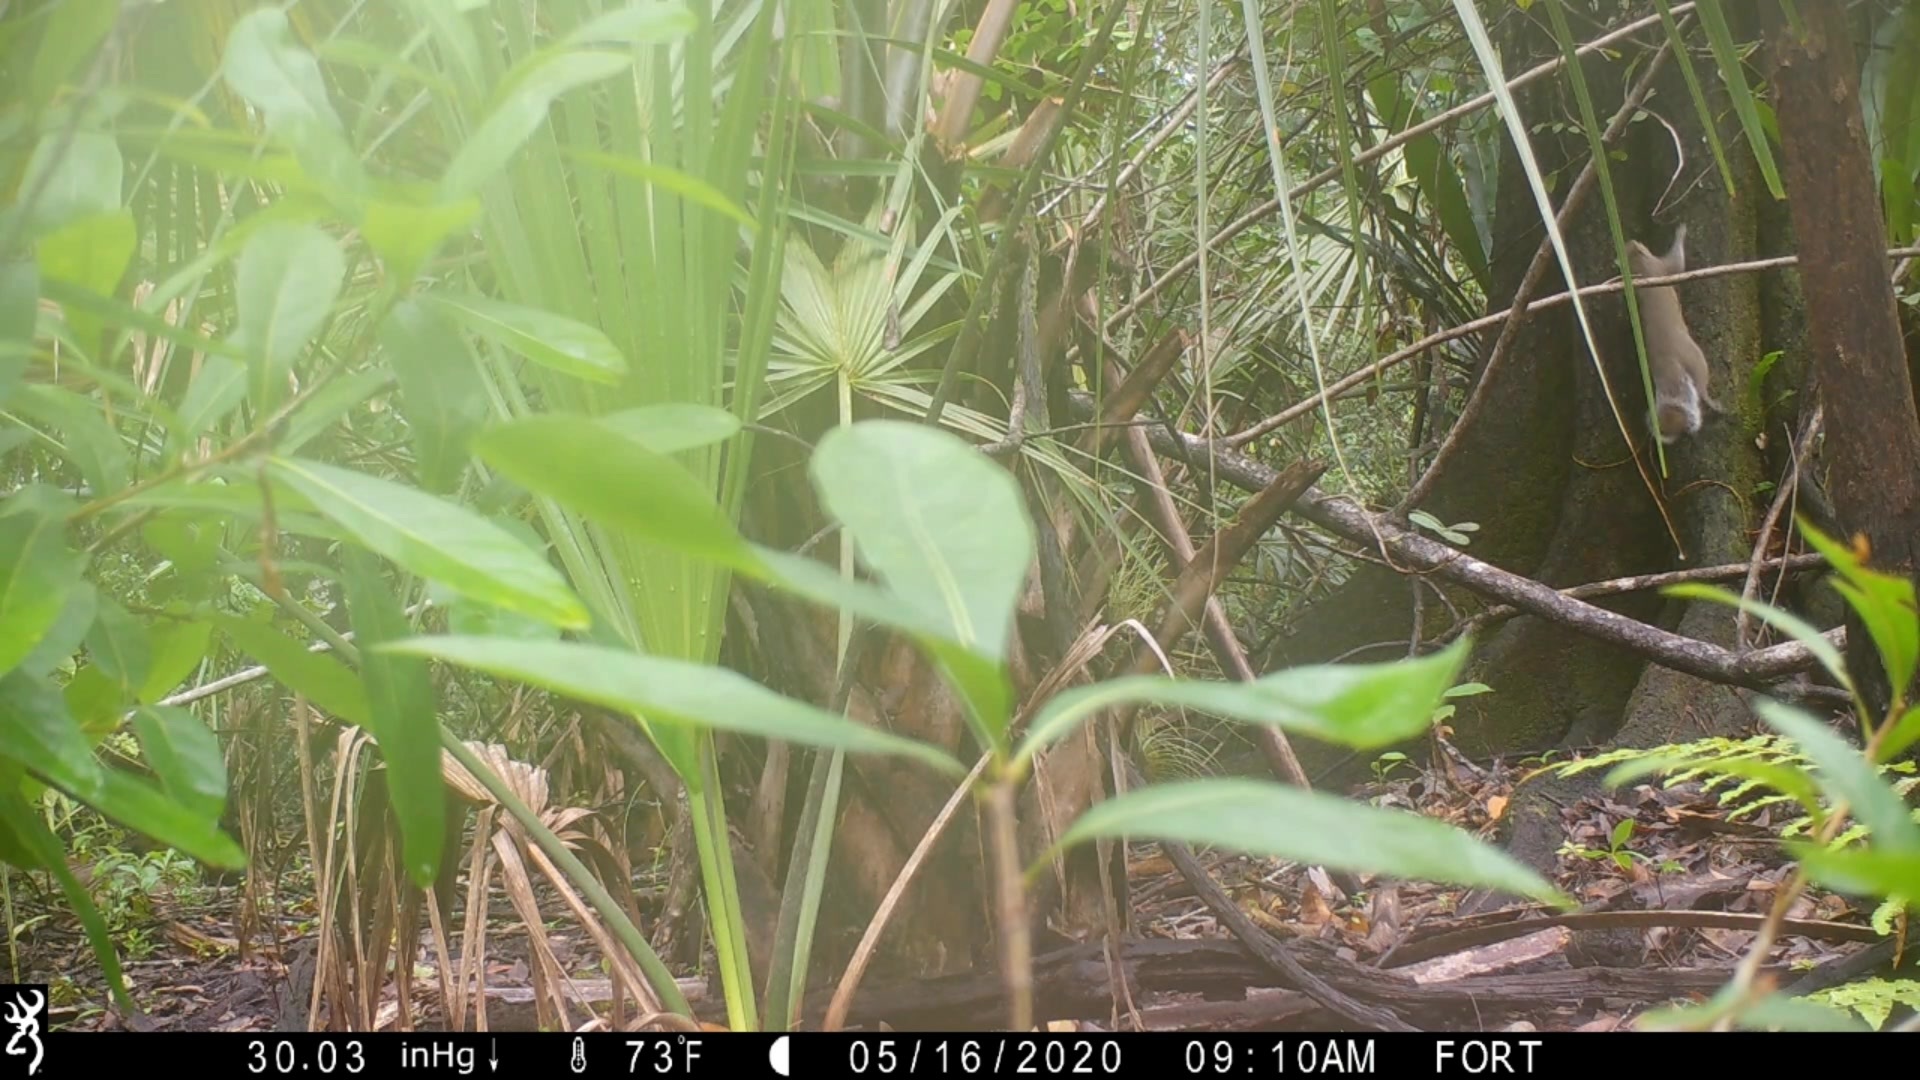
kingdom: Animalia
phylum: Chordata
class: Mammalia
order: Rodentia
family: Sciuridae
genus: Sciurus
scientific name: Sciurus carolinensis
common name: Eastern gray squirrel
